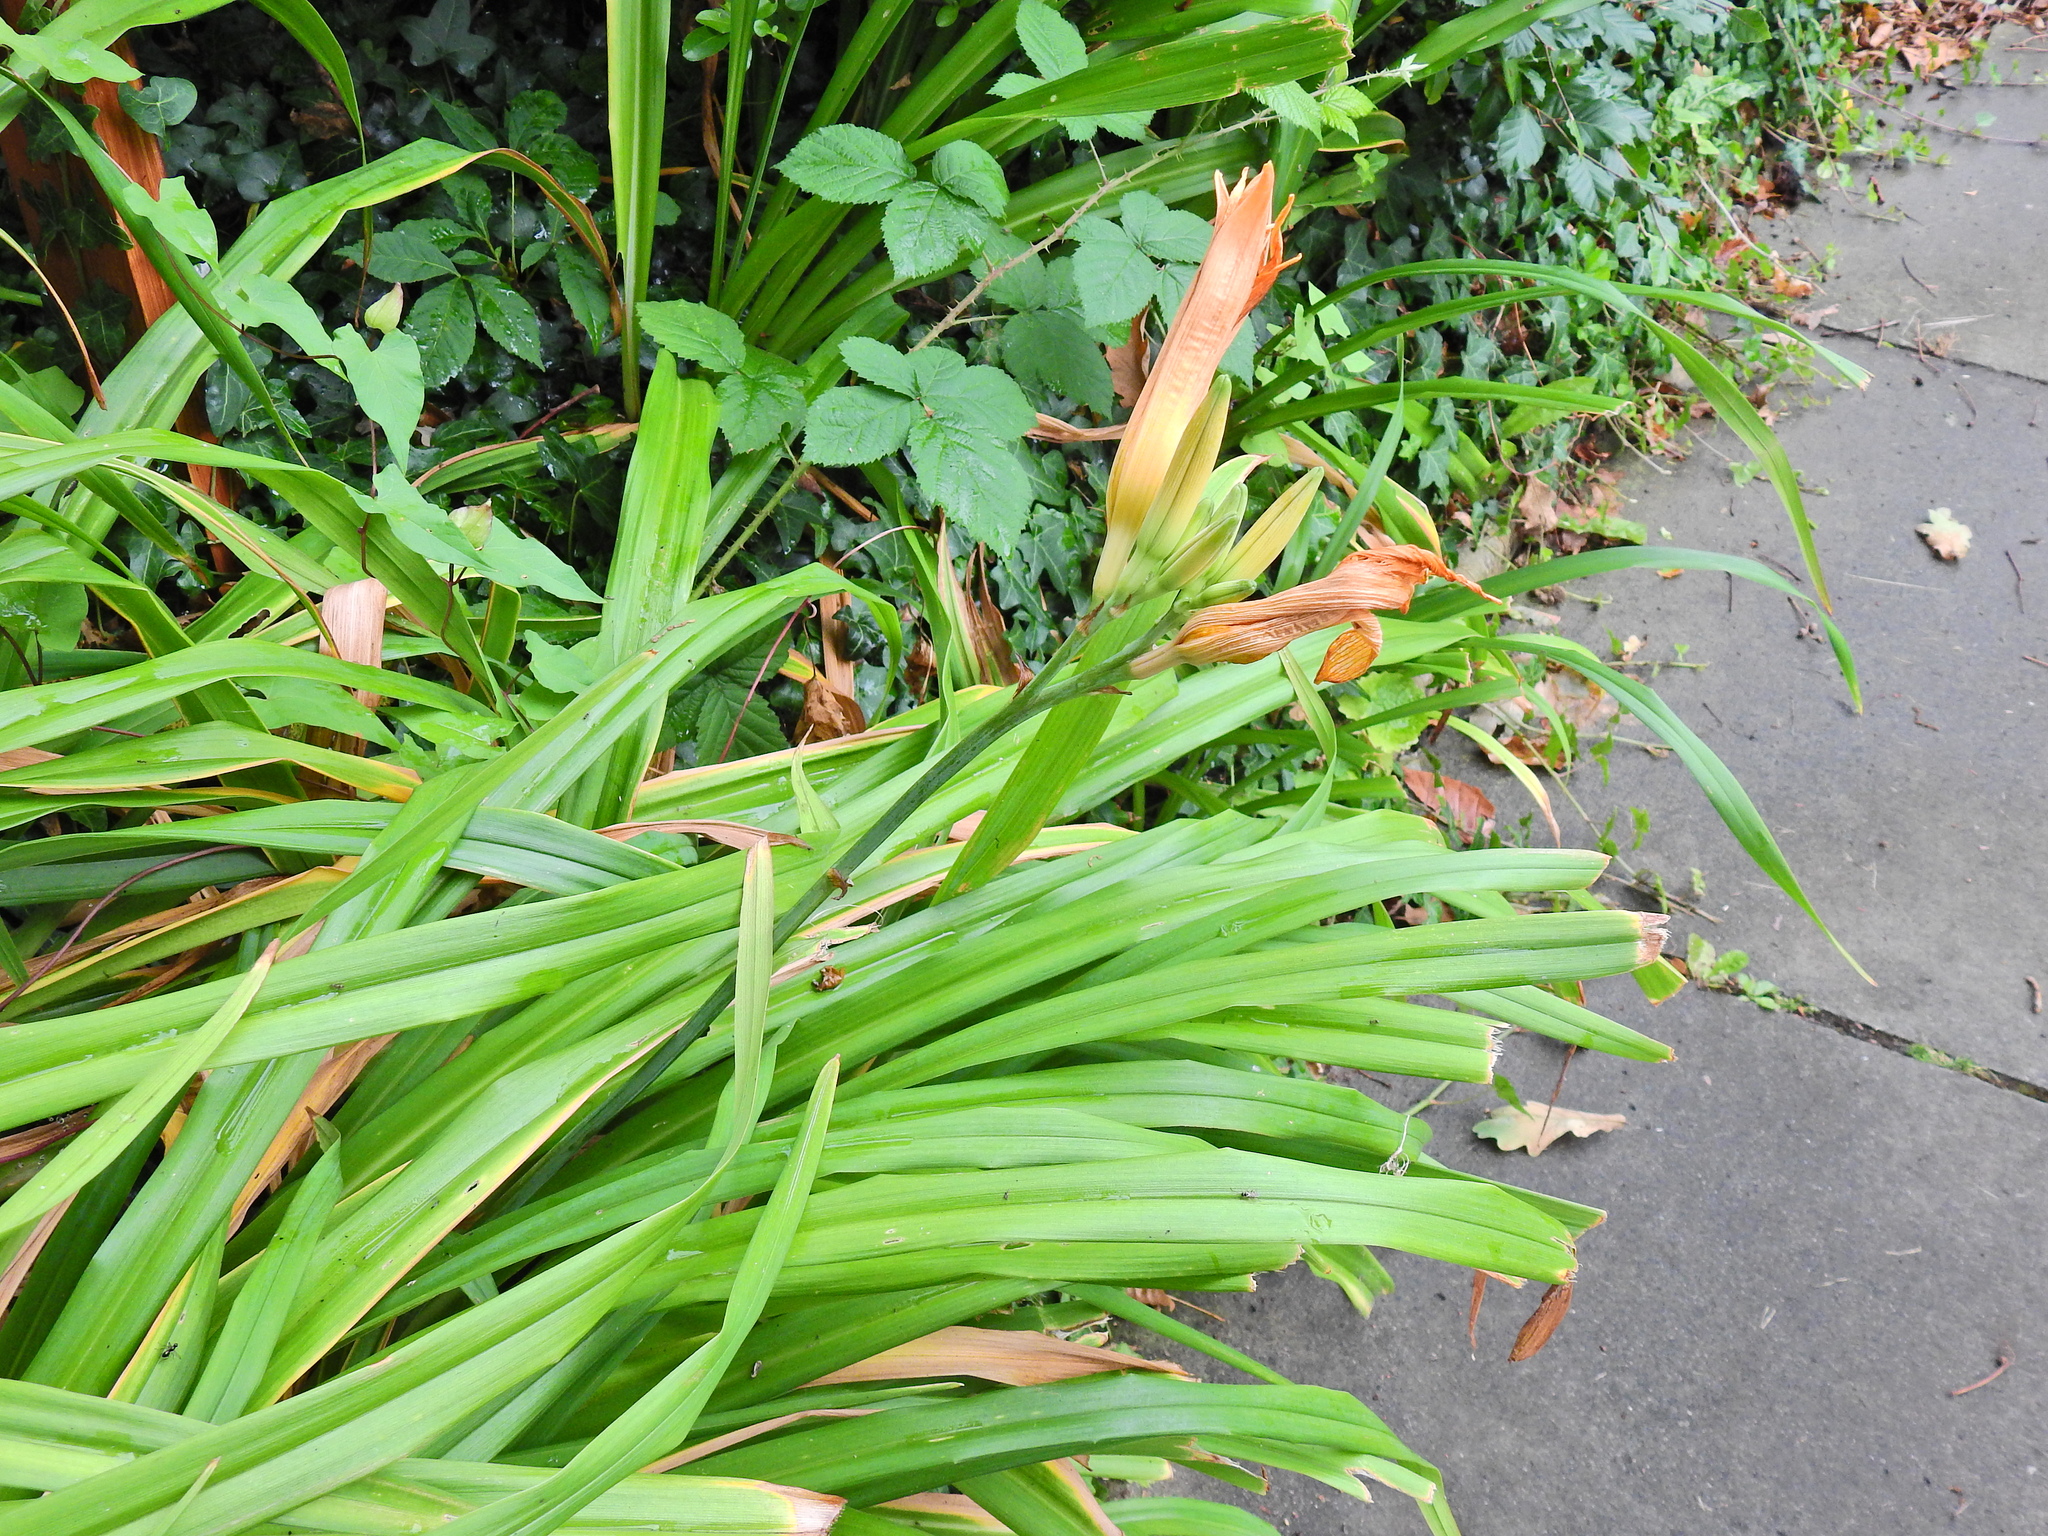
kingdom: Plantae
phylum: Tracheophyta
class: Liliopsida
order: Asparagales
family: Asphodelaceae
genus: Hemerocallis
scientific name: Hemerocallis fulva
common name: Orange day-lily
